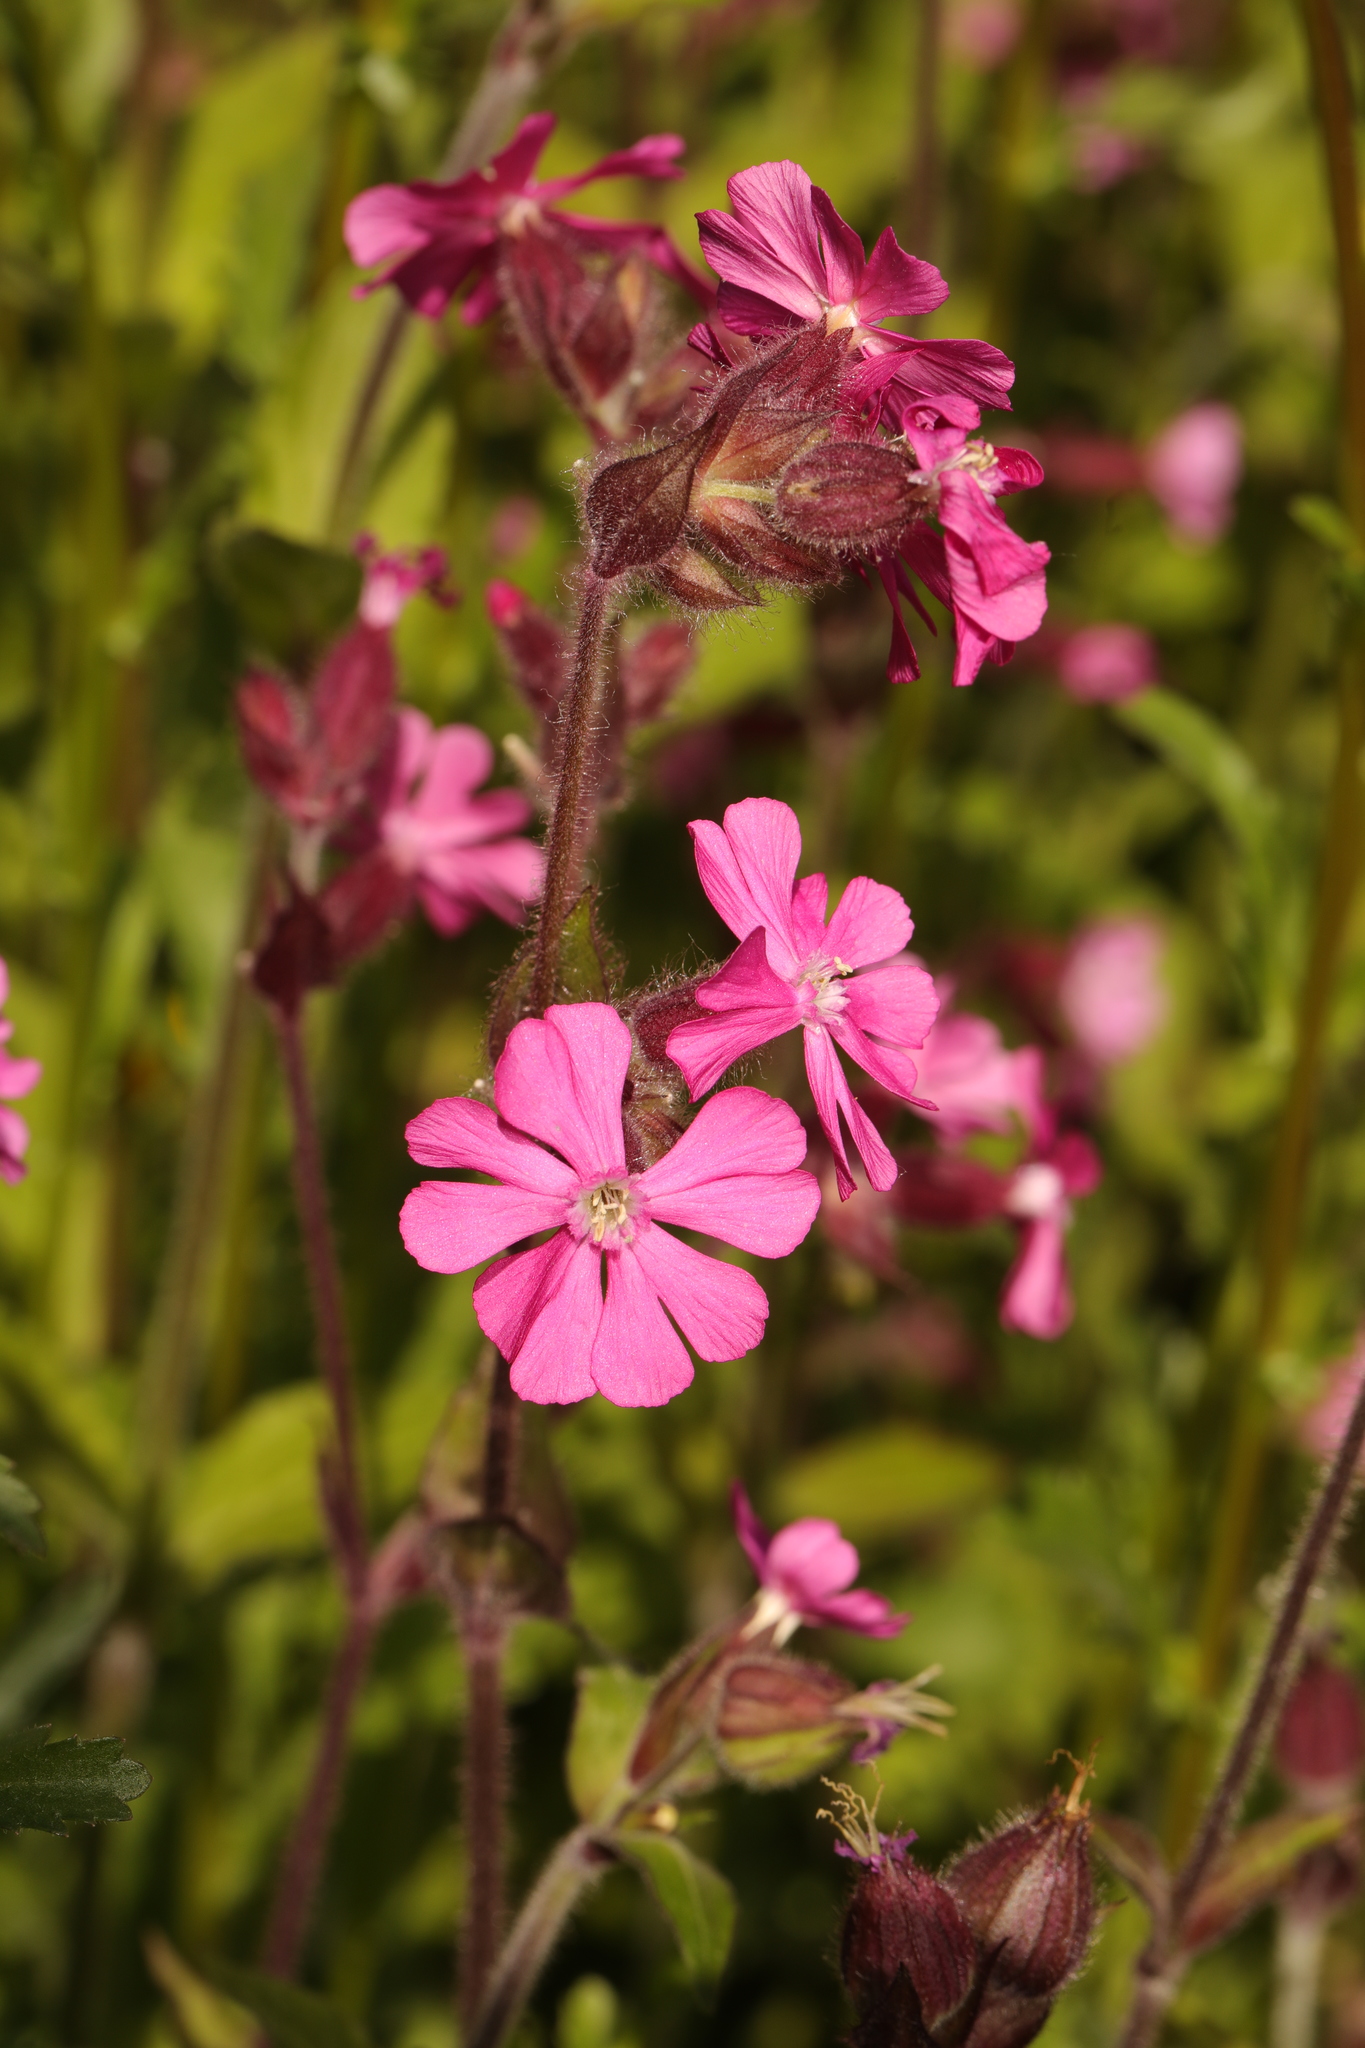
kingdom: Plantae
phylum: Tracheophyta
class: Magnoliopsida
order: Caryophyllales
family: Caryophyllaceae
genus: Silene
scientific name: Silene dioica
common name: Red campion
